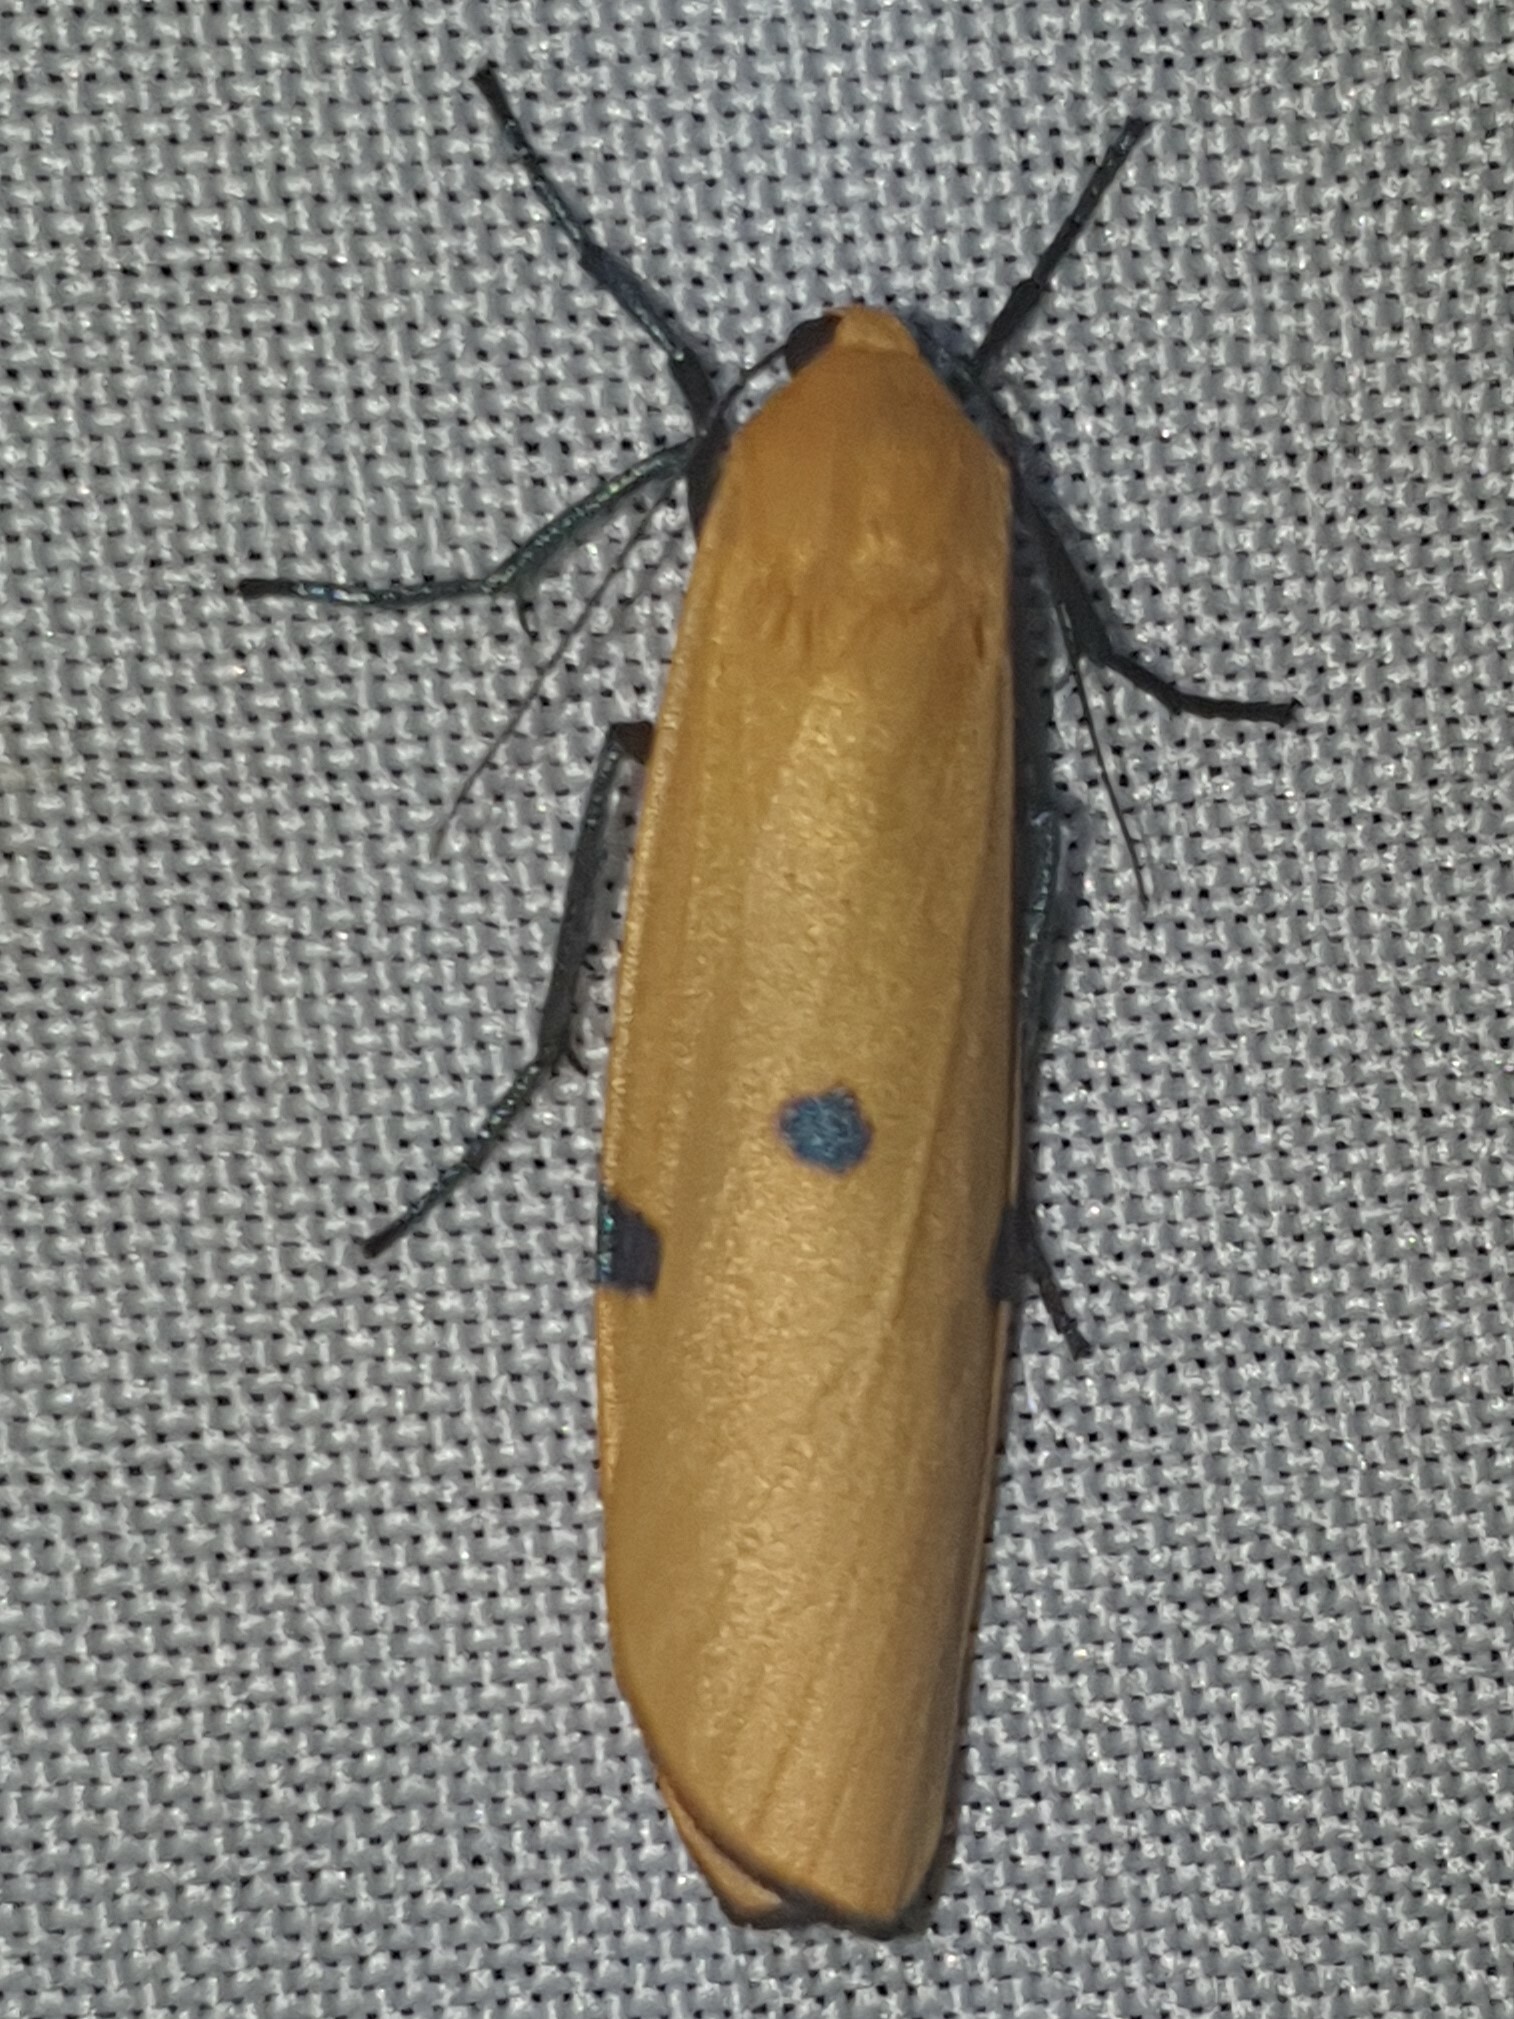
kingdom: Animalia
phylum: Arthropoda
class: Insecta
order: Lepidoptera
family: Erebidae
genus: Lithosia
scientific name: Lithosia quadra
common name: Four-spotted footman
